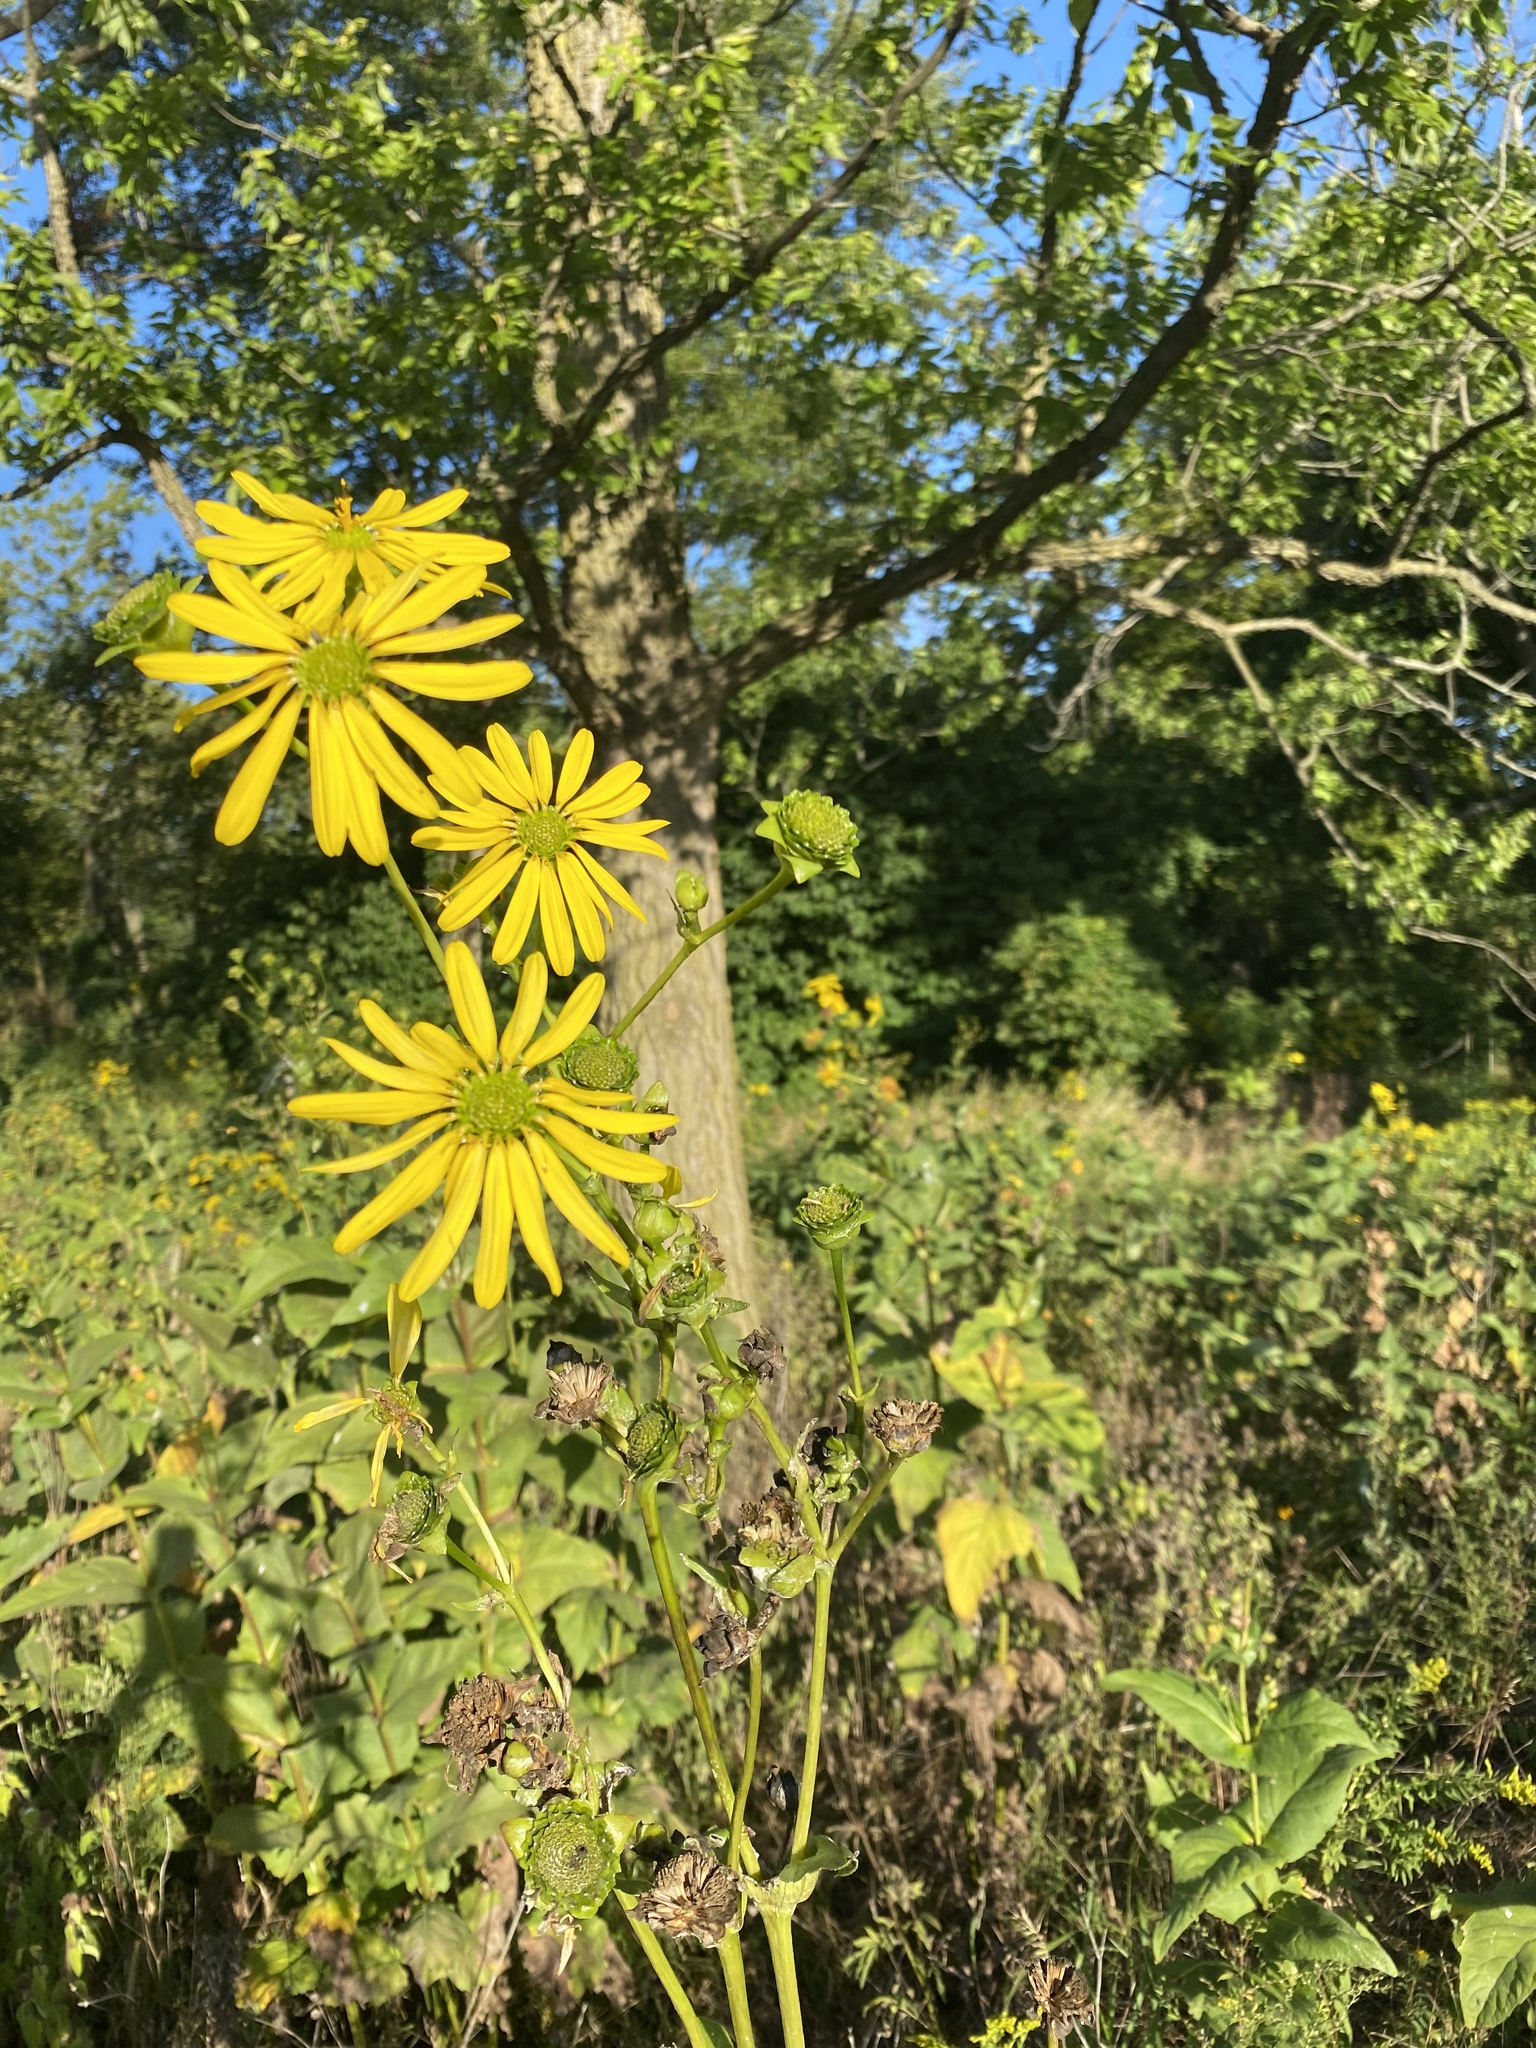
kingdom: Plantae
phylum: Tracheophyta
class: Magnoliopsida
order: Asterales
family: Asteraceae
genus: Silphium
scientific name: Silphium perfoliatum
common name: Cup-plant
